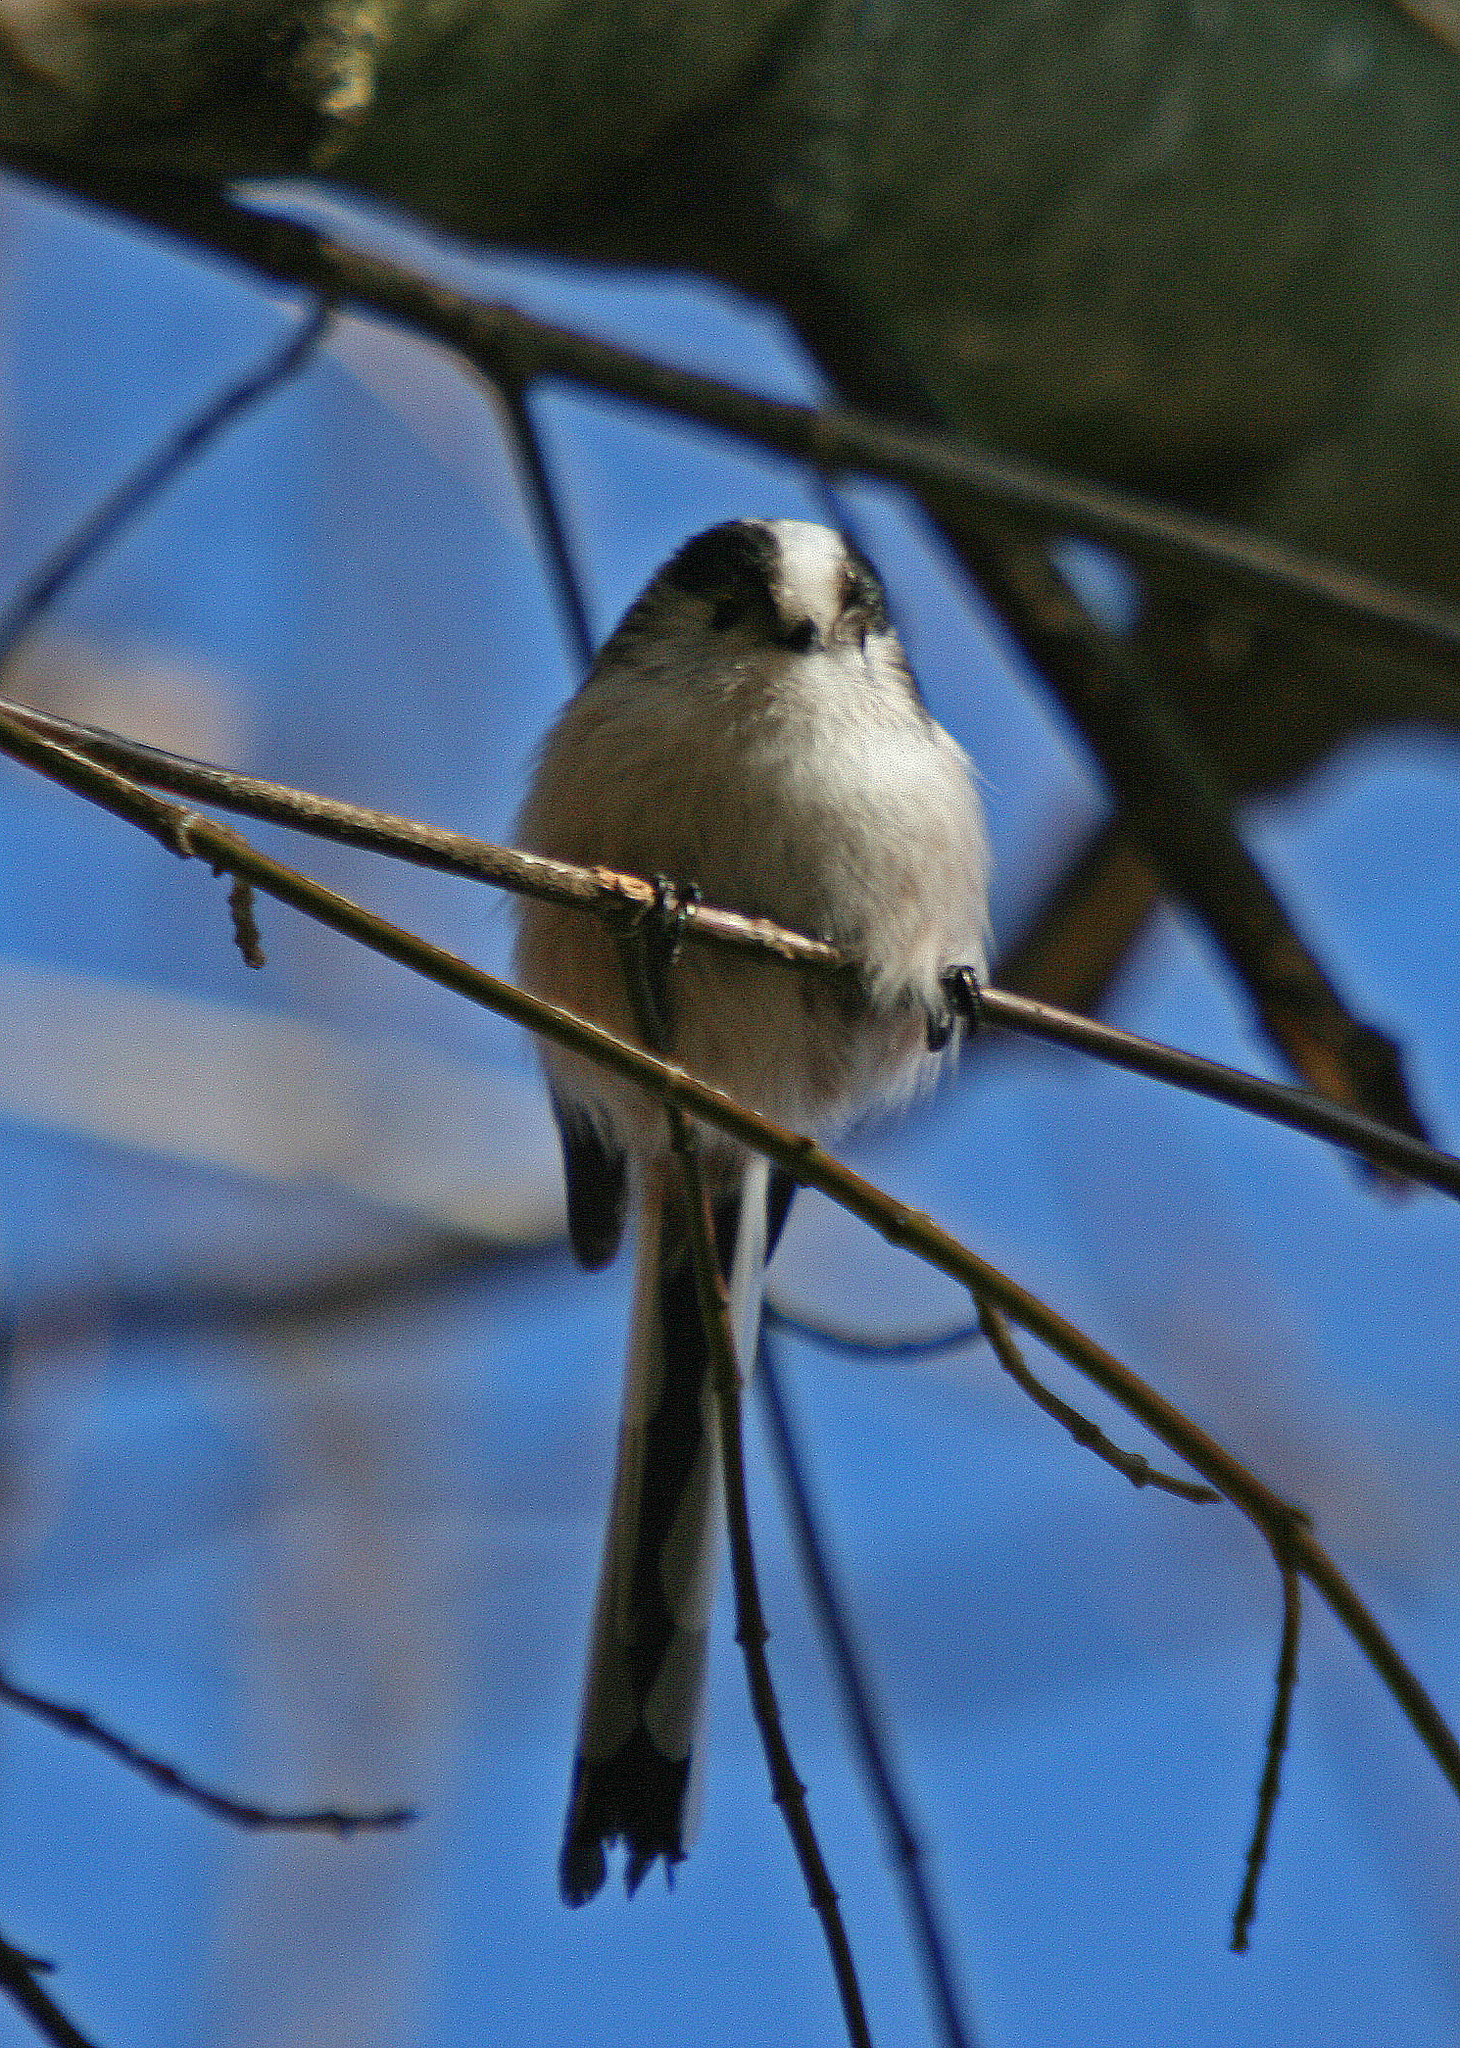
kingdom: Animalia
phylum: Chordata
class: Aves
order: Passeriformes
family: Aegithalidae
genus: Aegithalos
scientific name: Aegithalos caudatus
